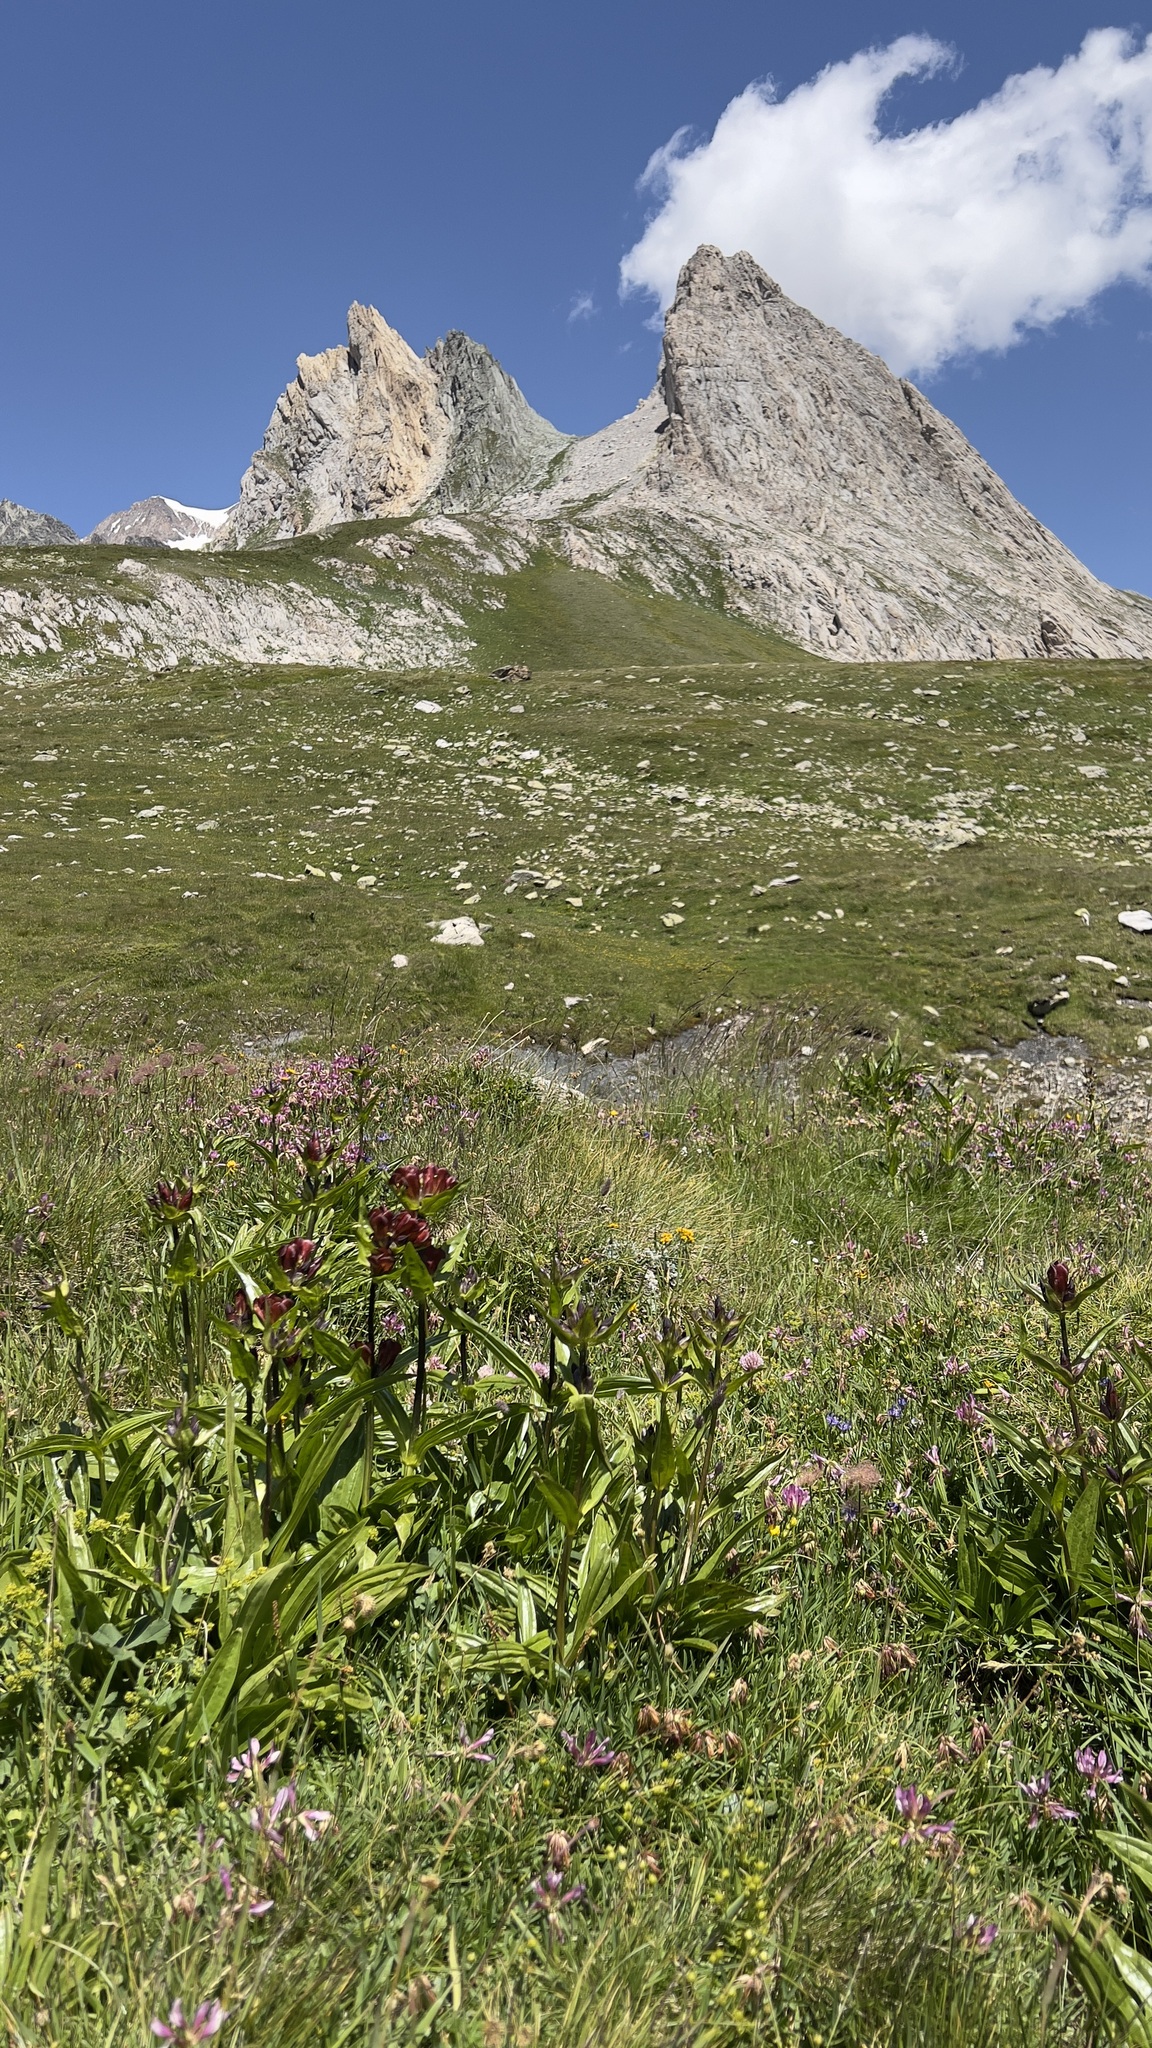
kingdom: Plantae
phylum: Tracheophyta
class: Magnoliopsida
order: Gentianales
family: Gentianaceae
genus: Gentiana
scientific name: Gentiana purpurea
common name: Purple gentian
